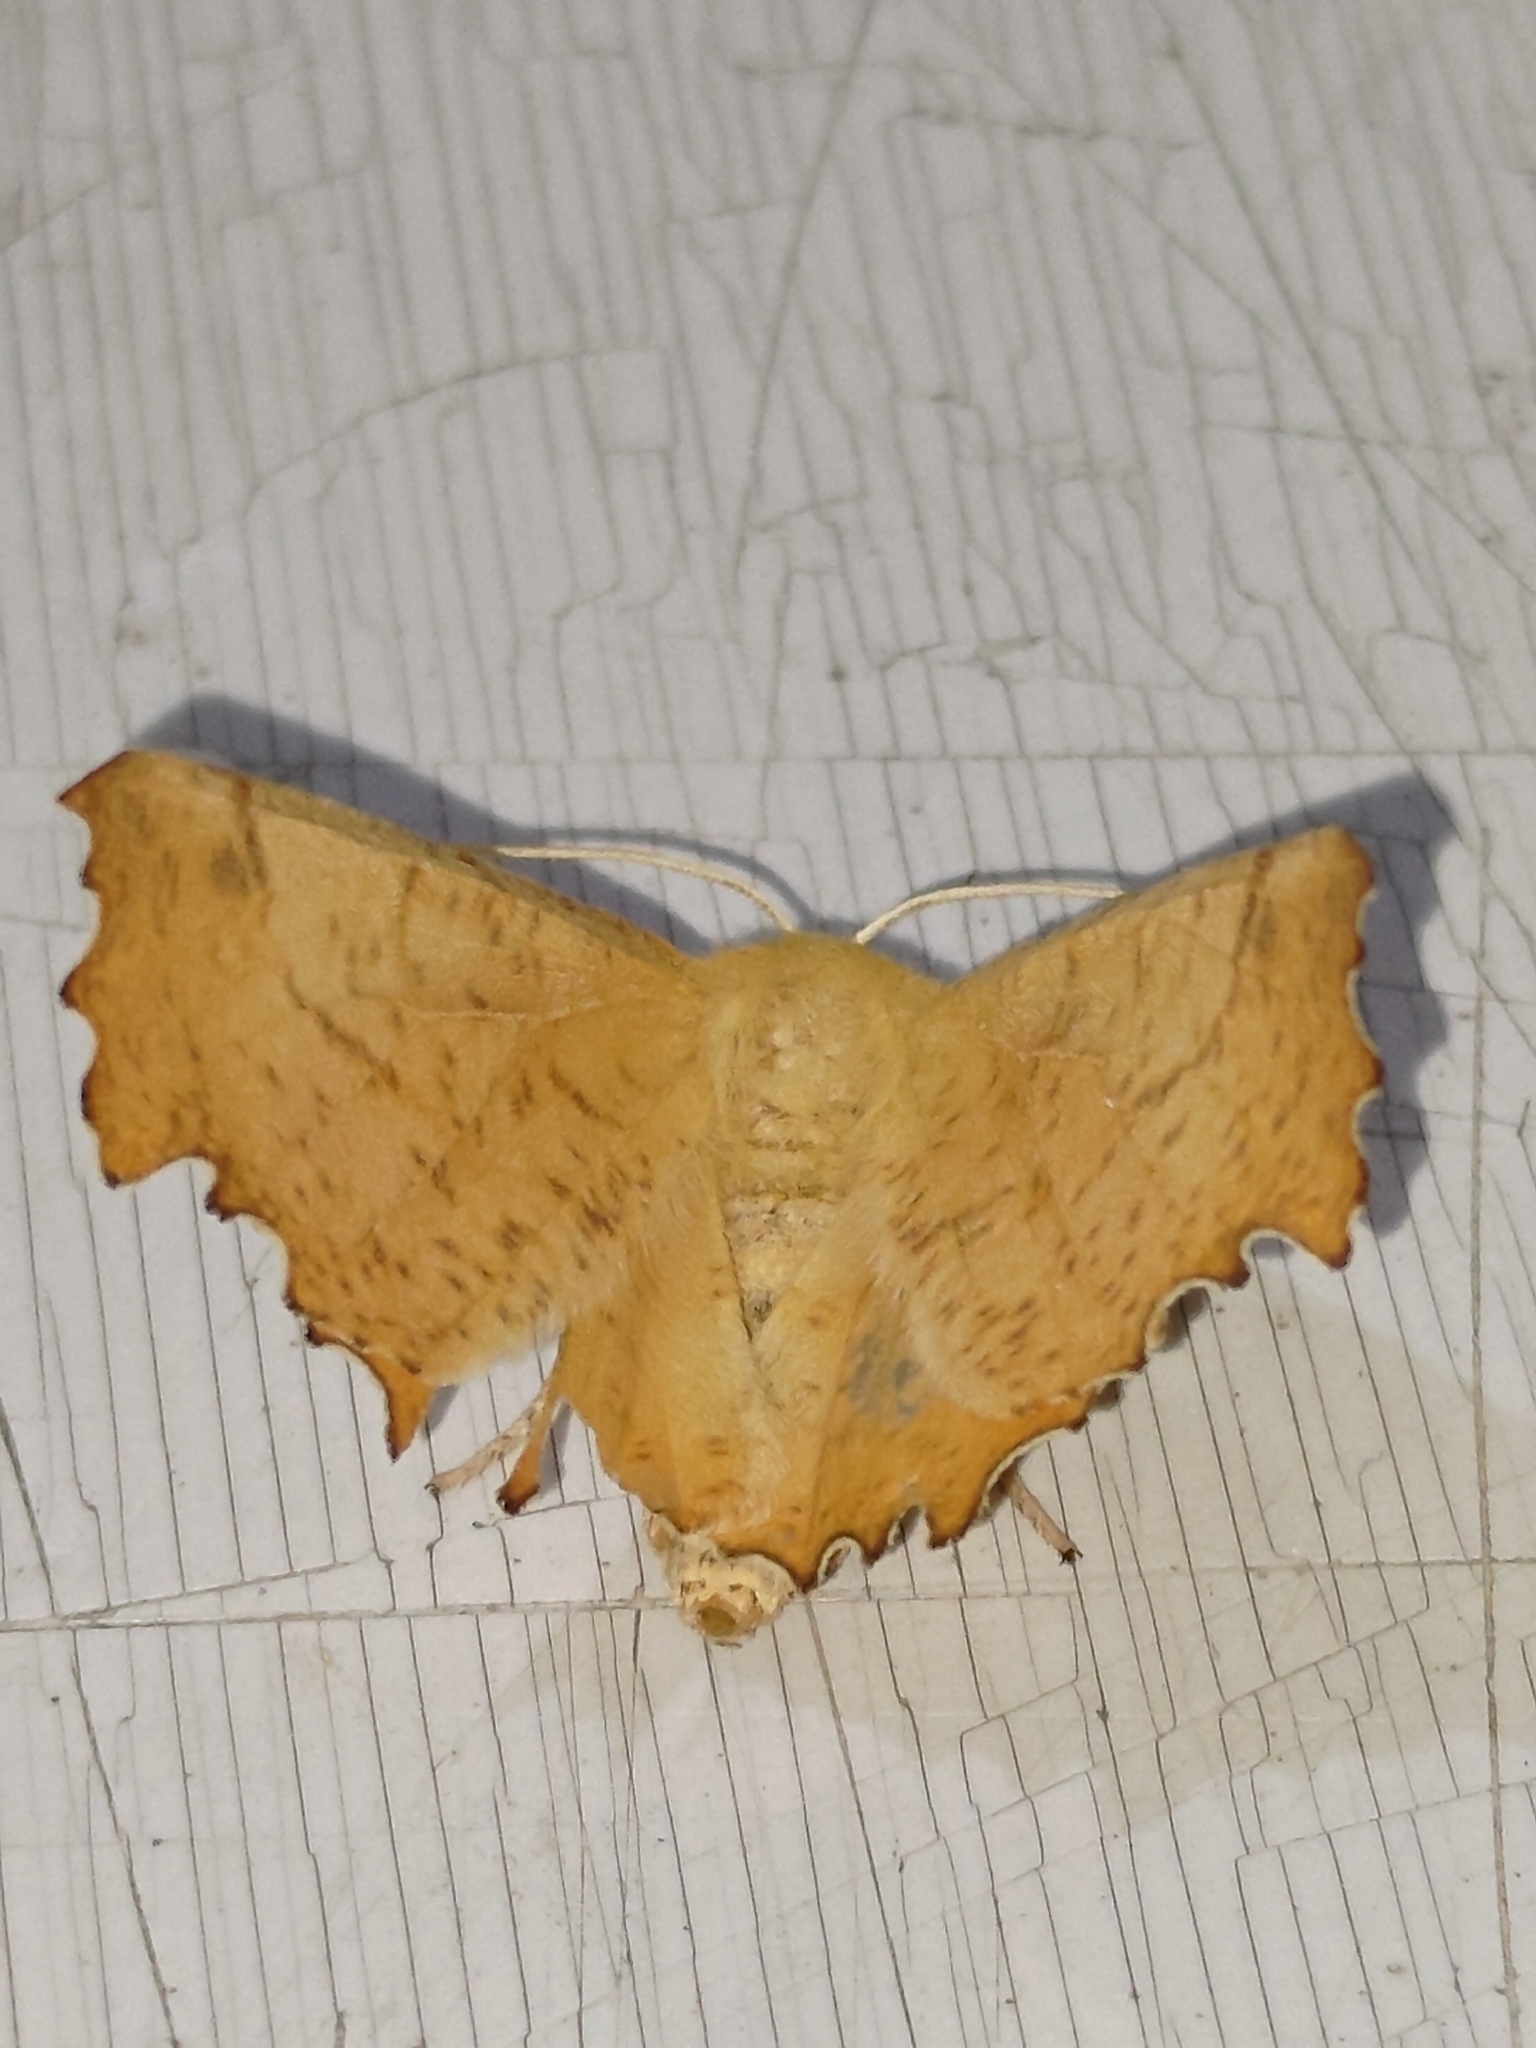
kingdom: Animalia
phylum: Arthropoda
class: Insecta
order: Lepidoptera
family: Geometridae
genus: Ennomos
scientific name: Ennomos autumnaria
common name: Large thorn
